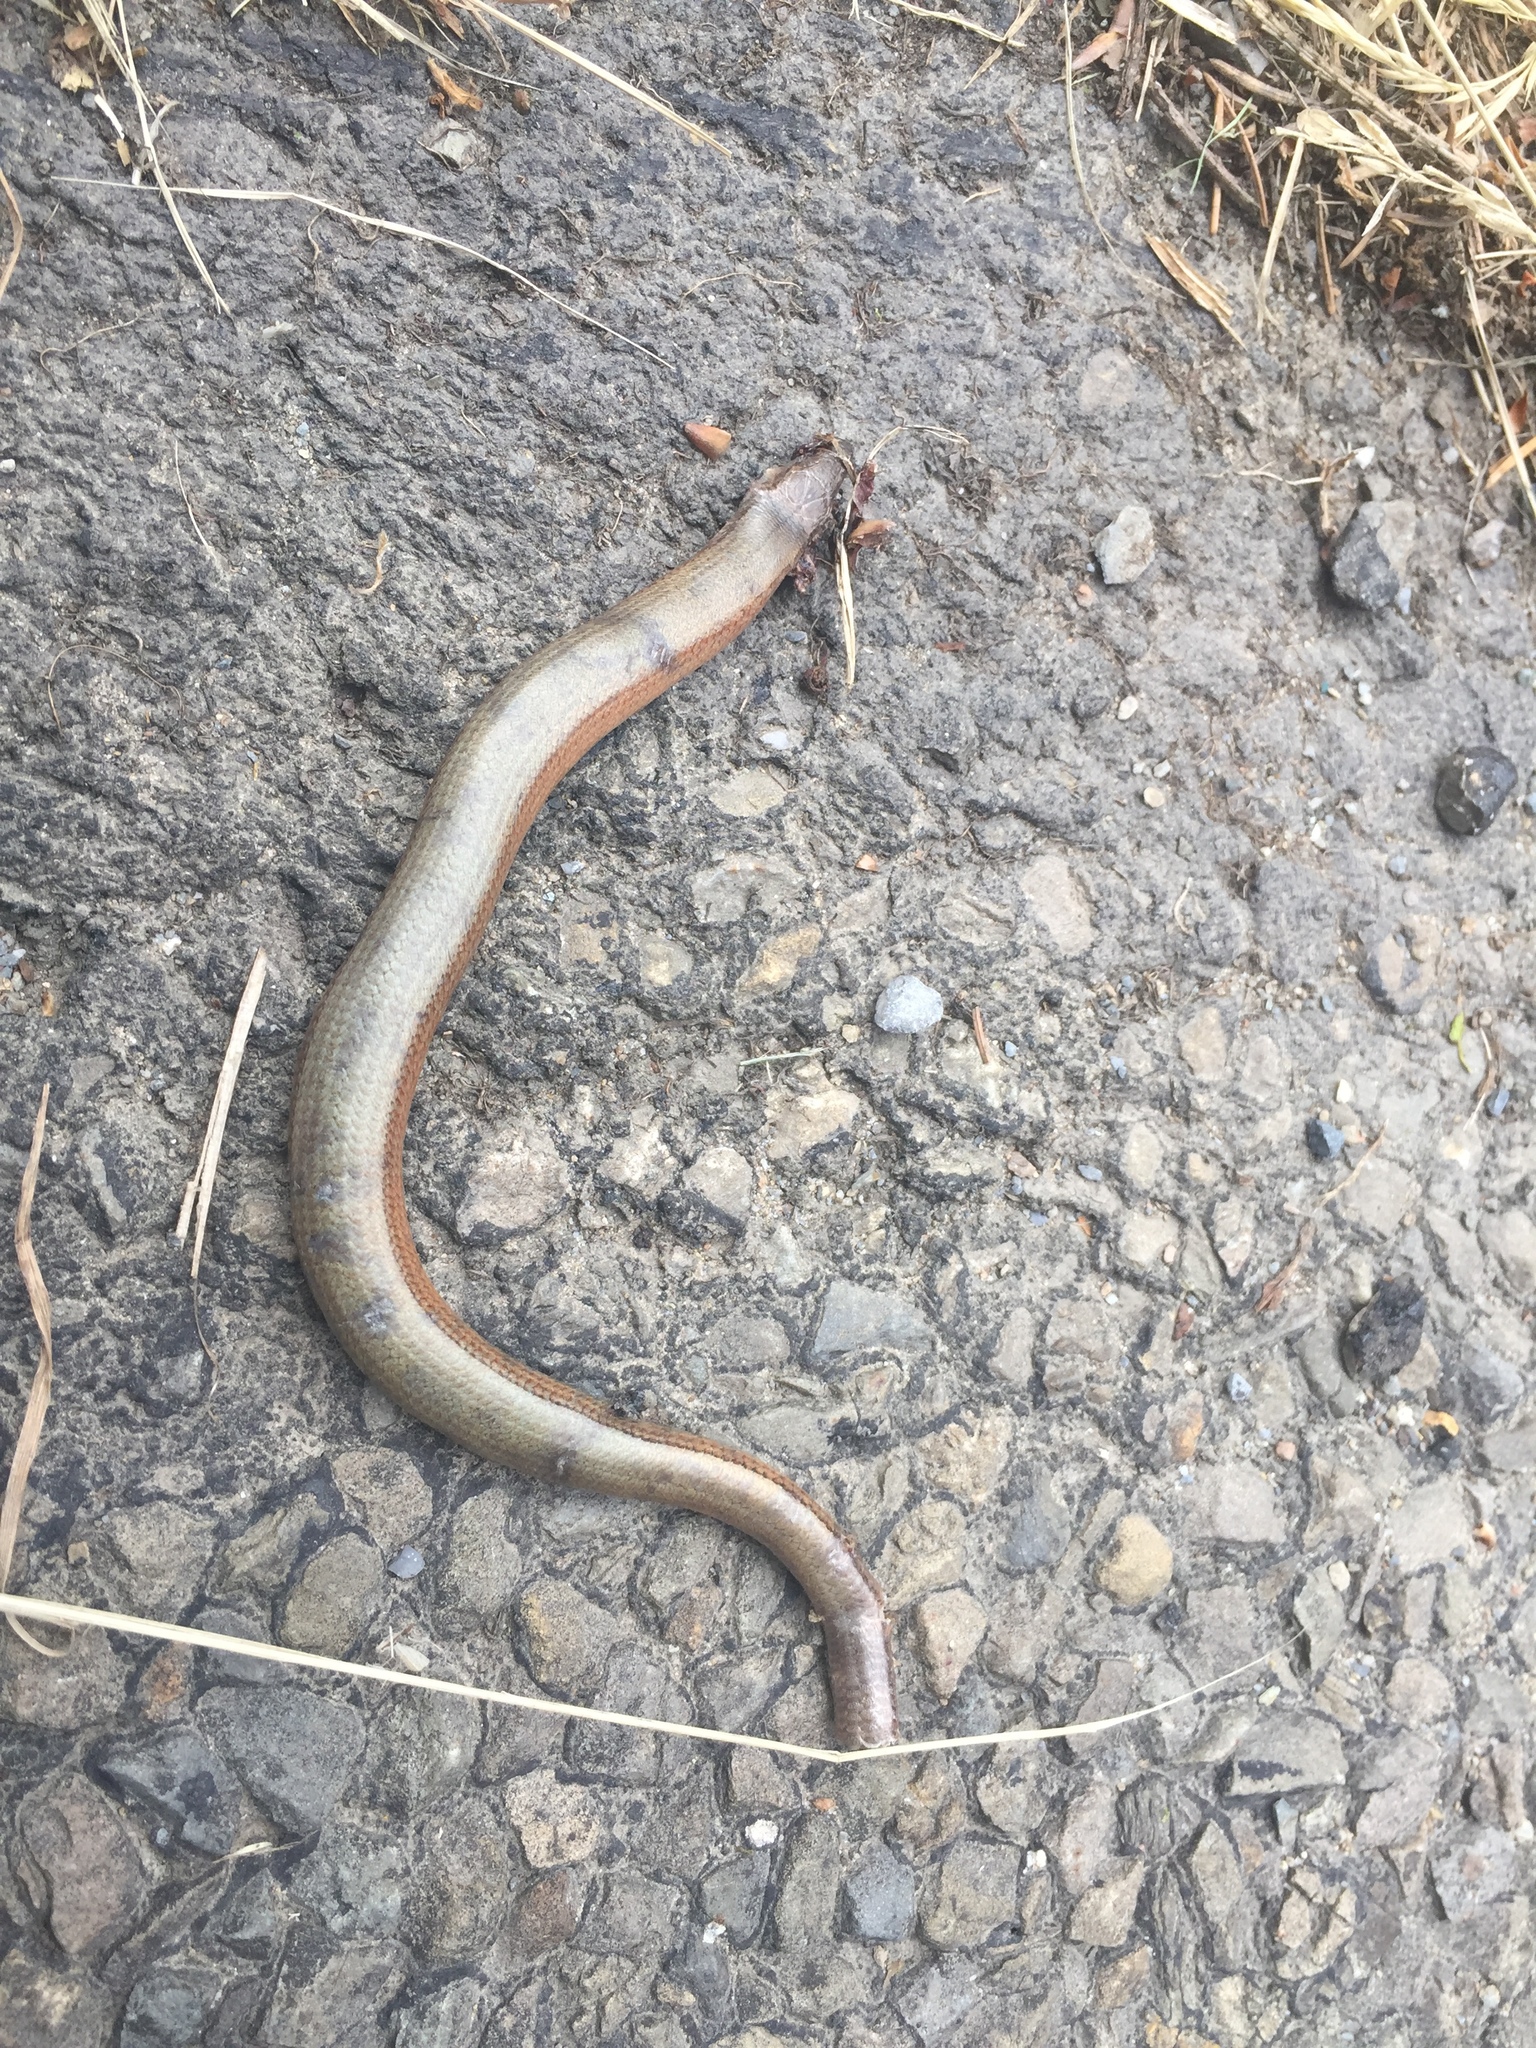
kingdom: Animalia
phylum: Chordata
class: Squamata
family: Anguidae
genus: Anguis
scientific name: Anguis fragilis
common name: Slow worm
